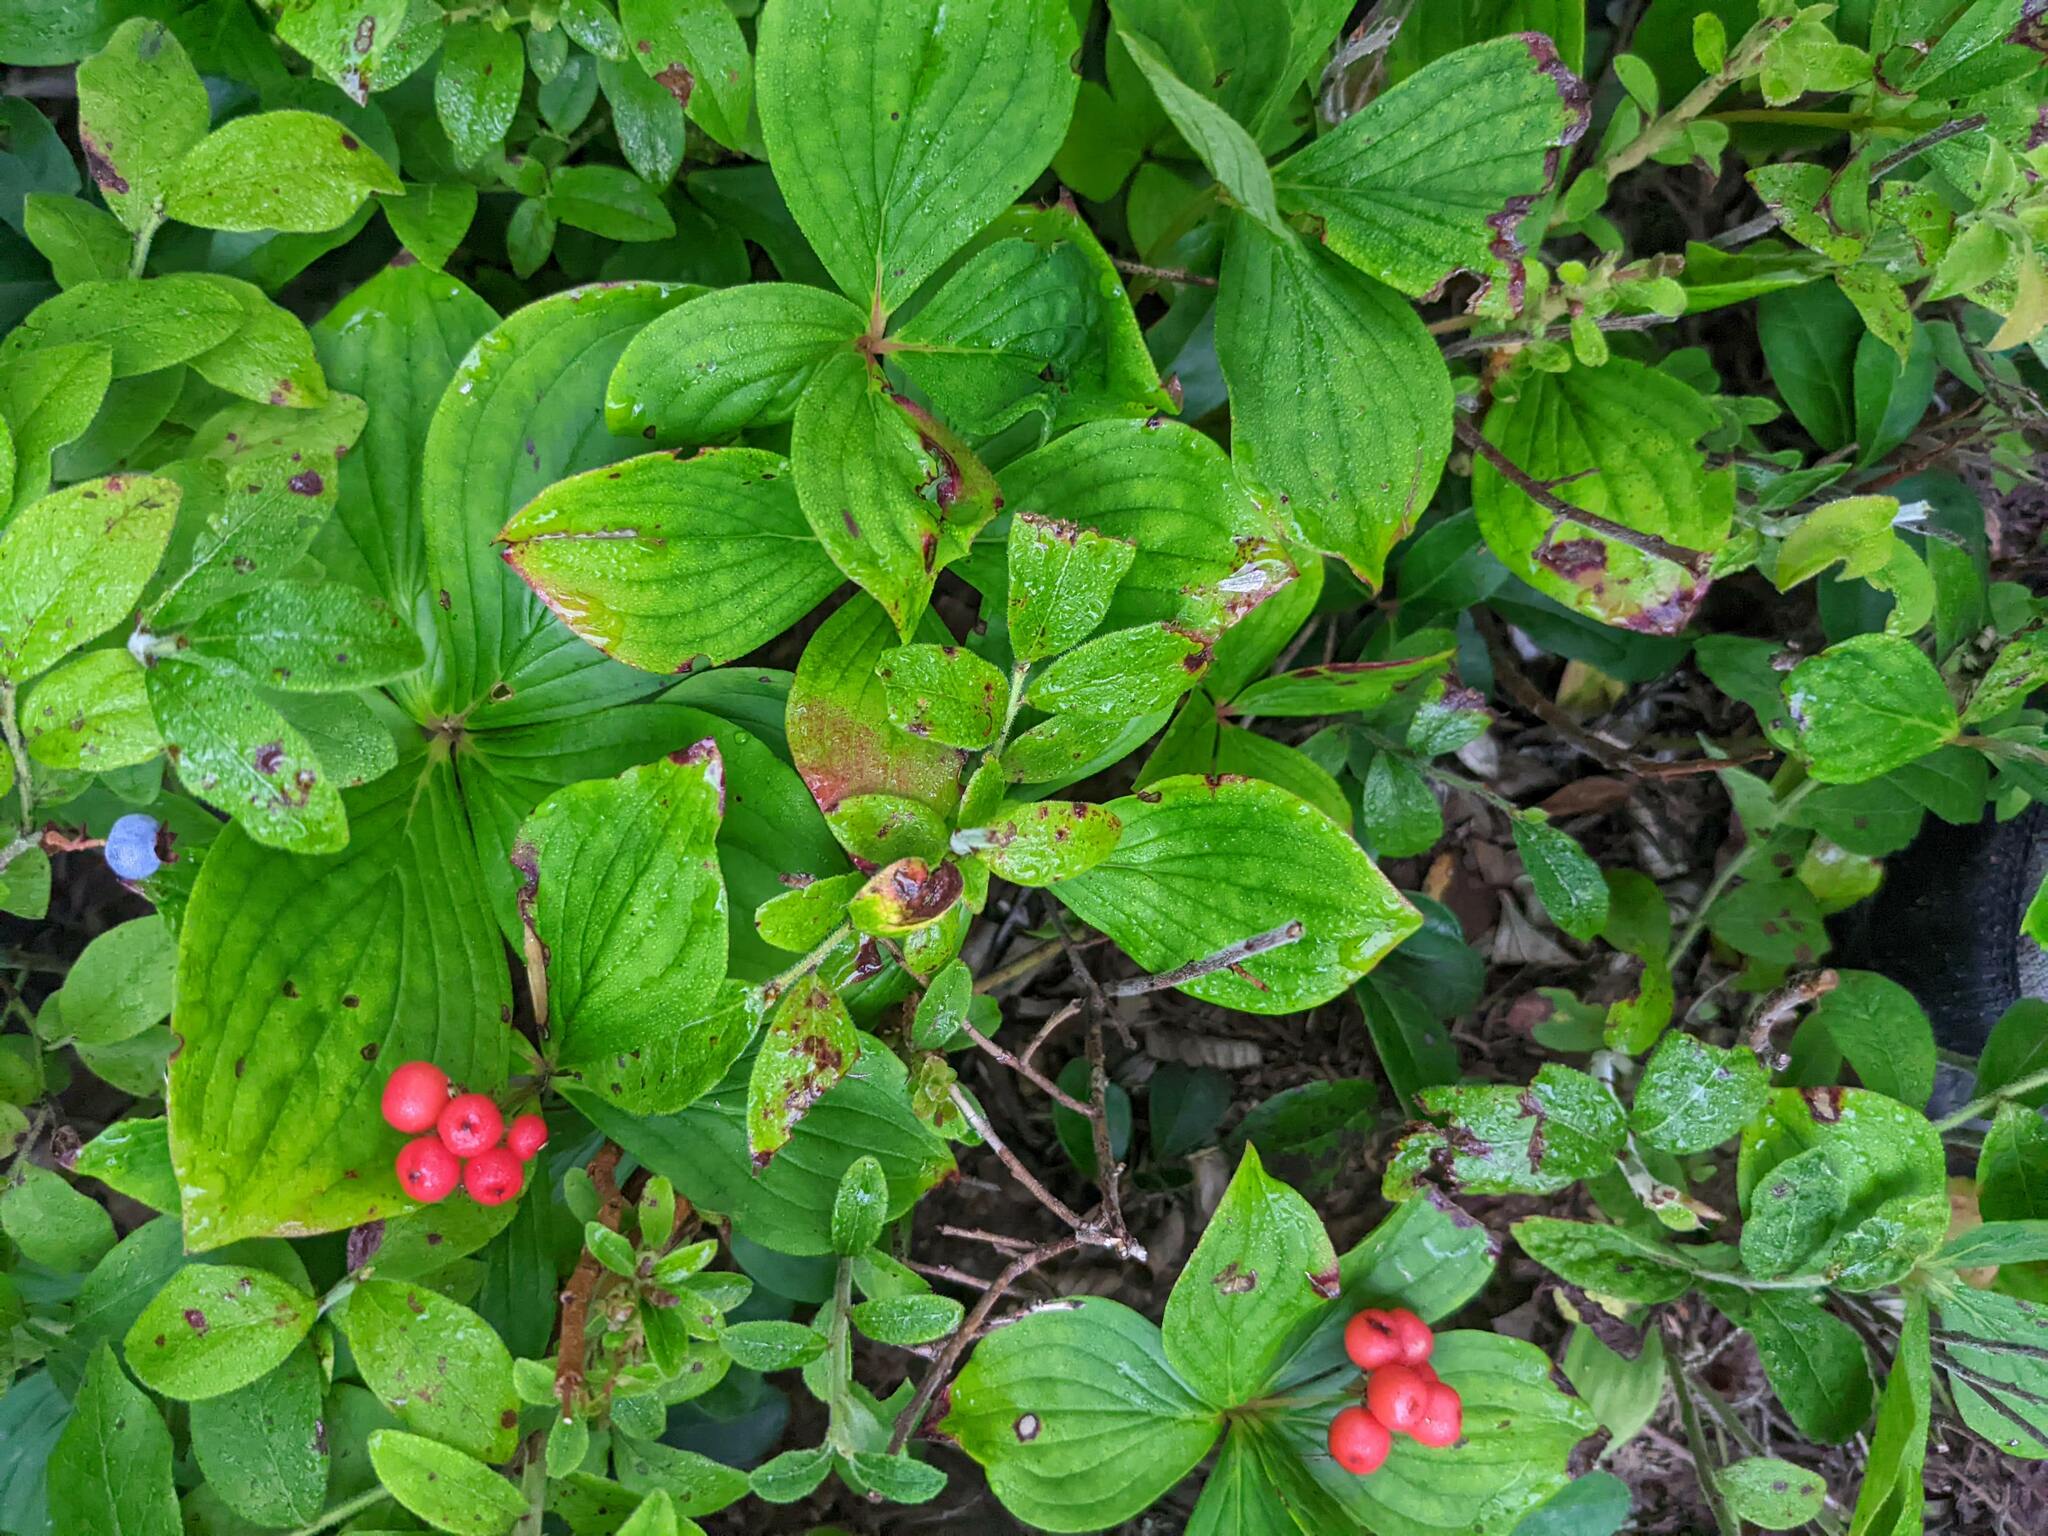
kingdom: Plantae
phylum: Tracheophyta
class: Magnoliopsida
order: Cornales
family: Cornaceae
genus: Cornus
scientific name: Cornus canadensis
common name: Creeping dogwood
